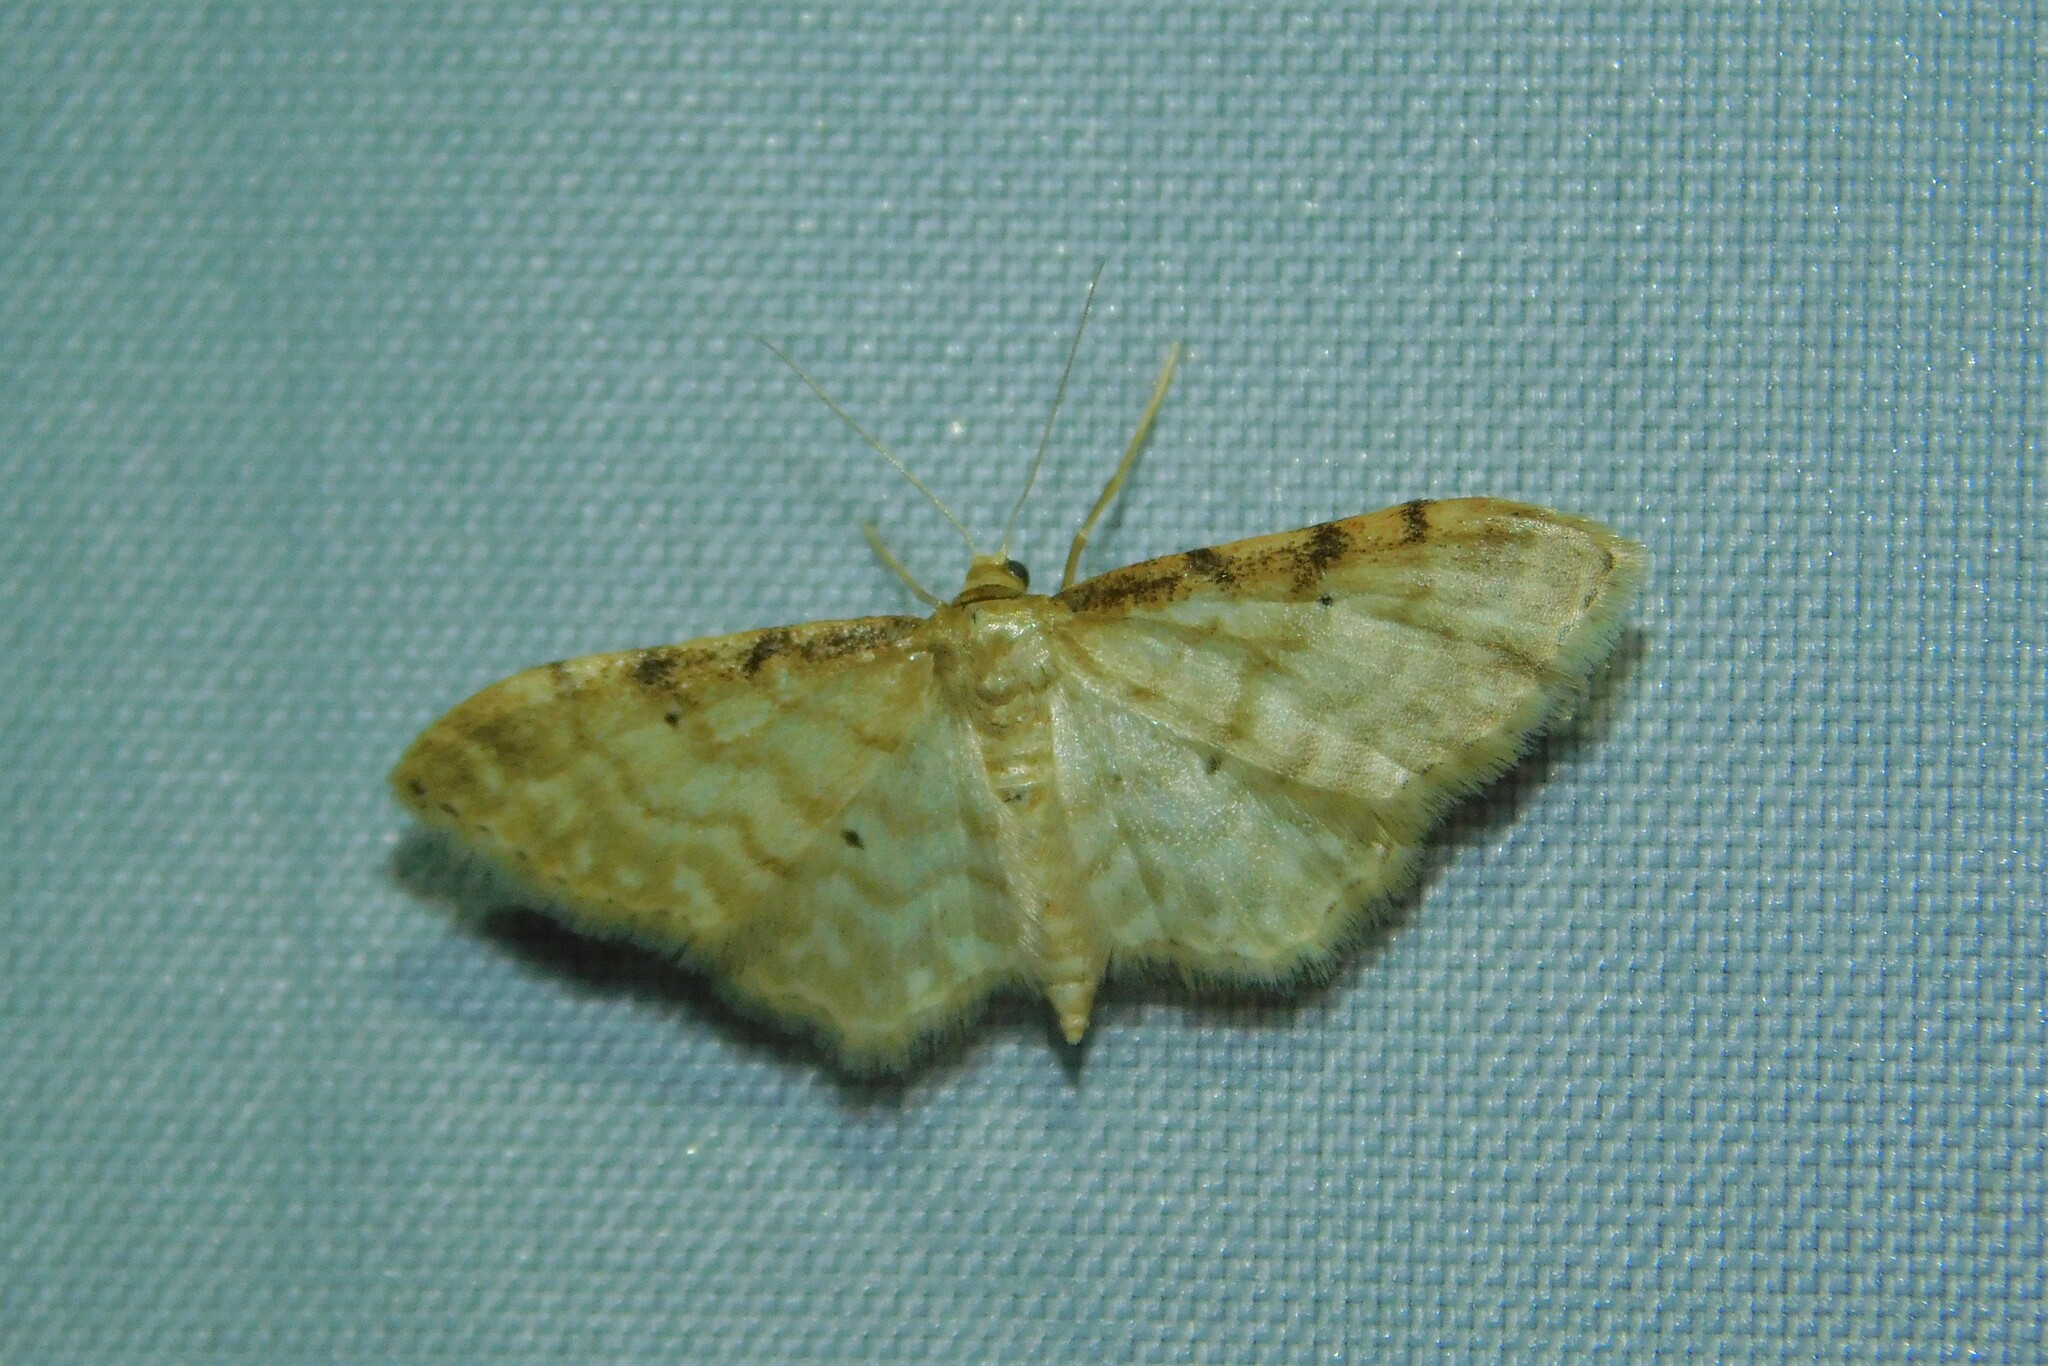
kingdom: Animalia
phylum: Arthropoda
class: Insecta
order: Lepidoptera
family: Geometridae
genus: Idaea
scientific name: Idaea fuscovenosa
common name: Dwarf cream wave
